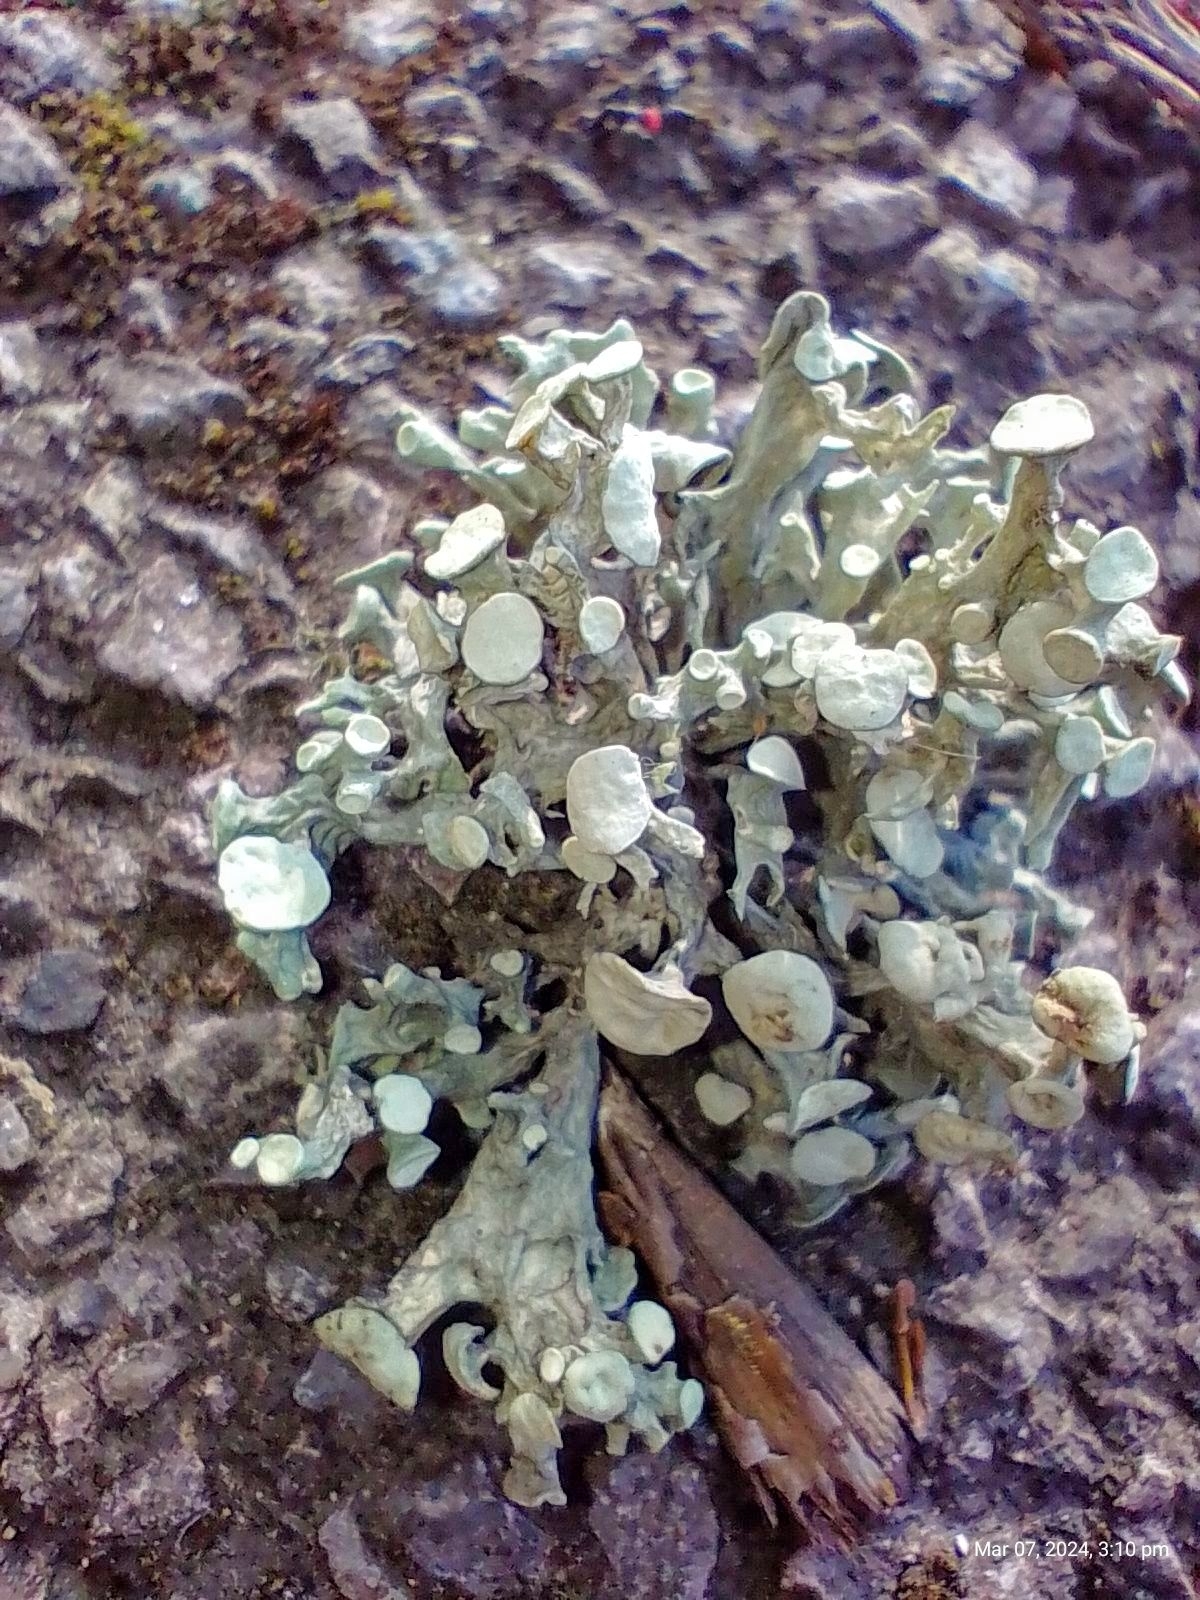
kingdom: Fungi
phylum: Ascomycota
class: Lecanoromycetes
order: Lecanorales
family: Ramalinaceae
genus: Ramalina
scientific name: Ramalina fastigiata
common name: Dotted ribbon lichen
